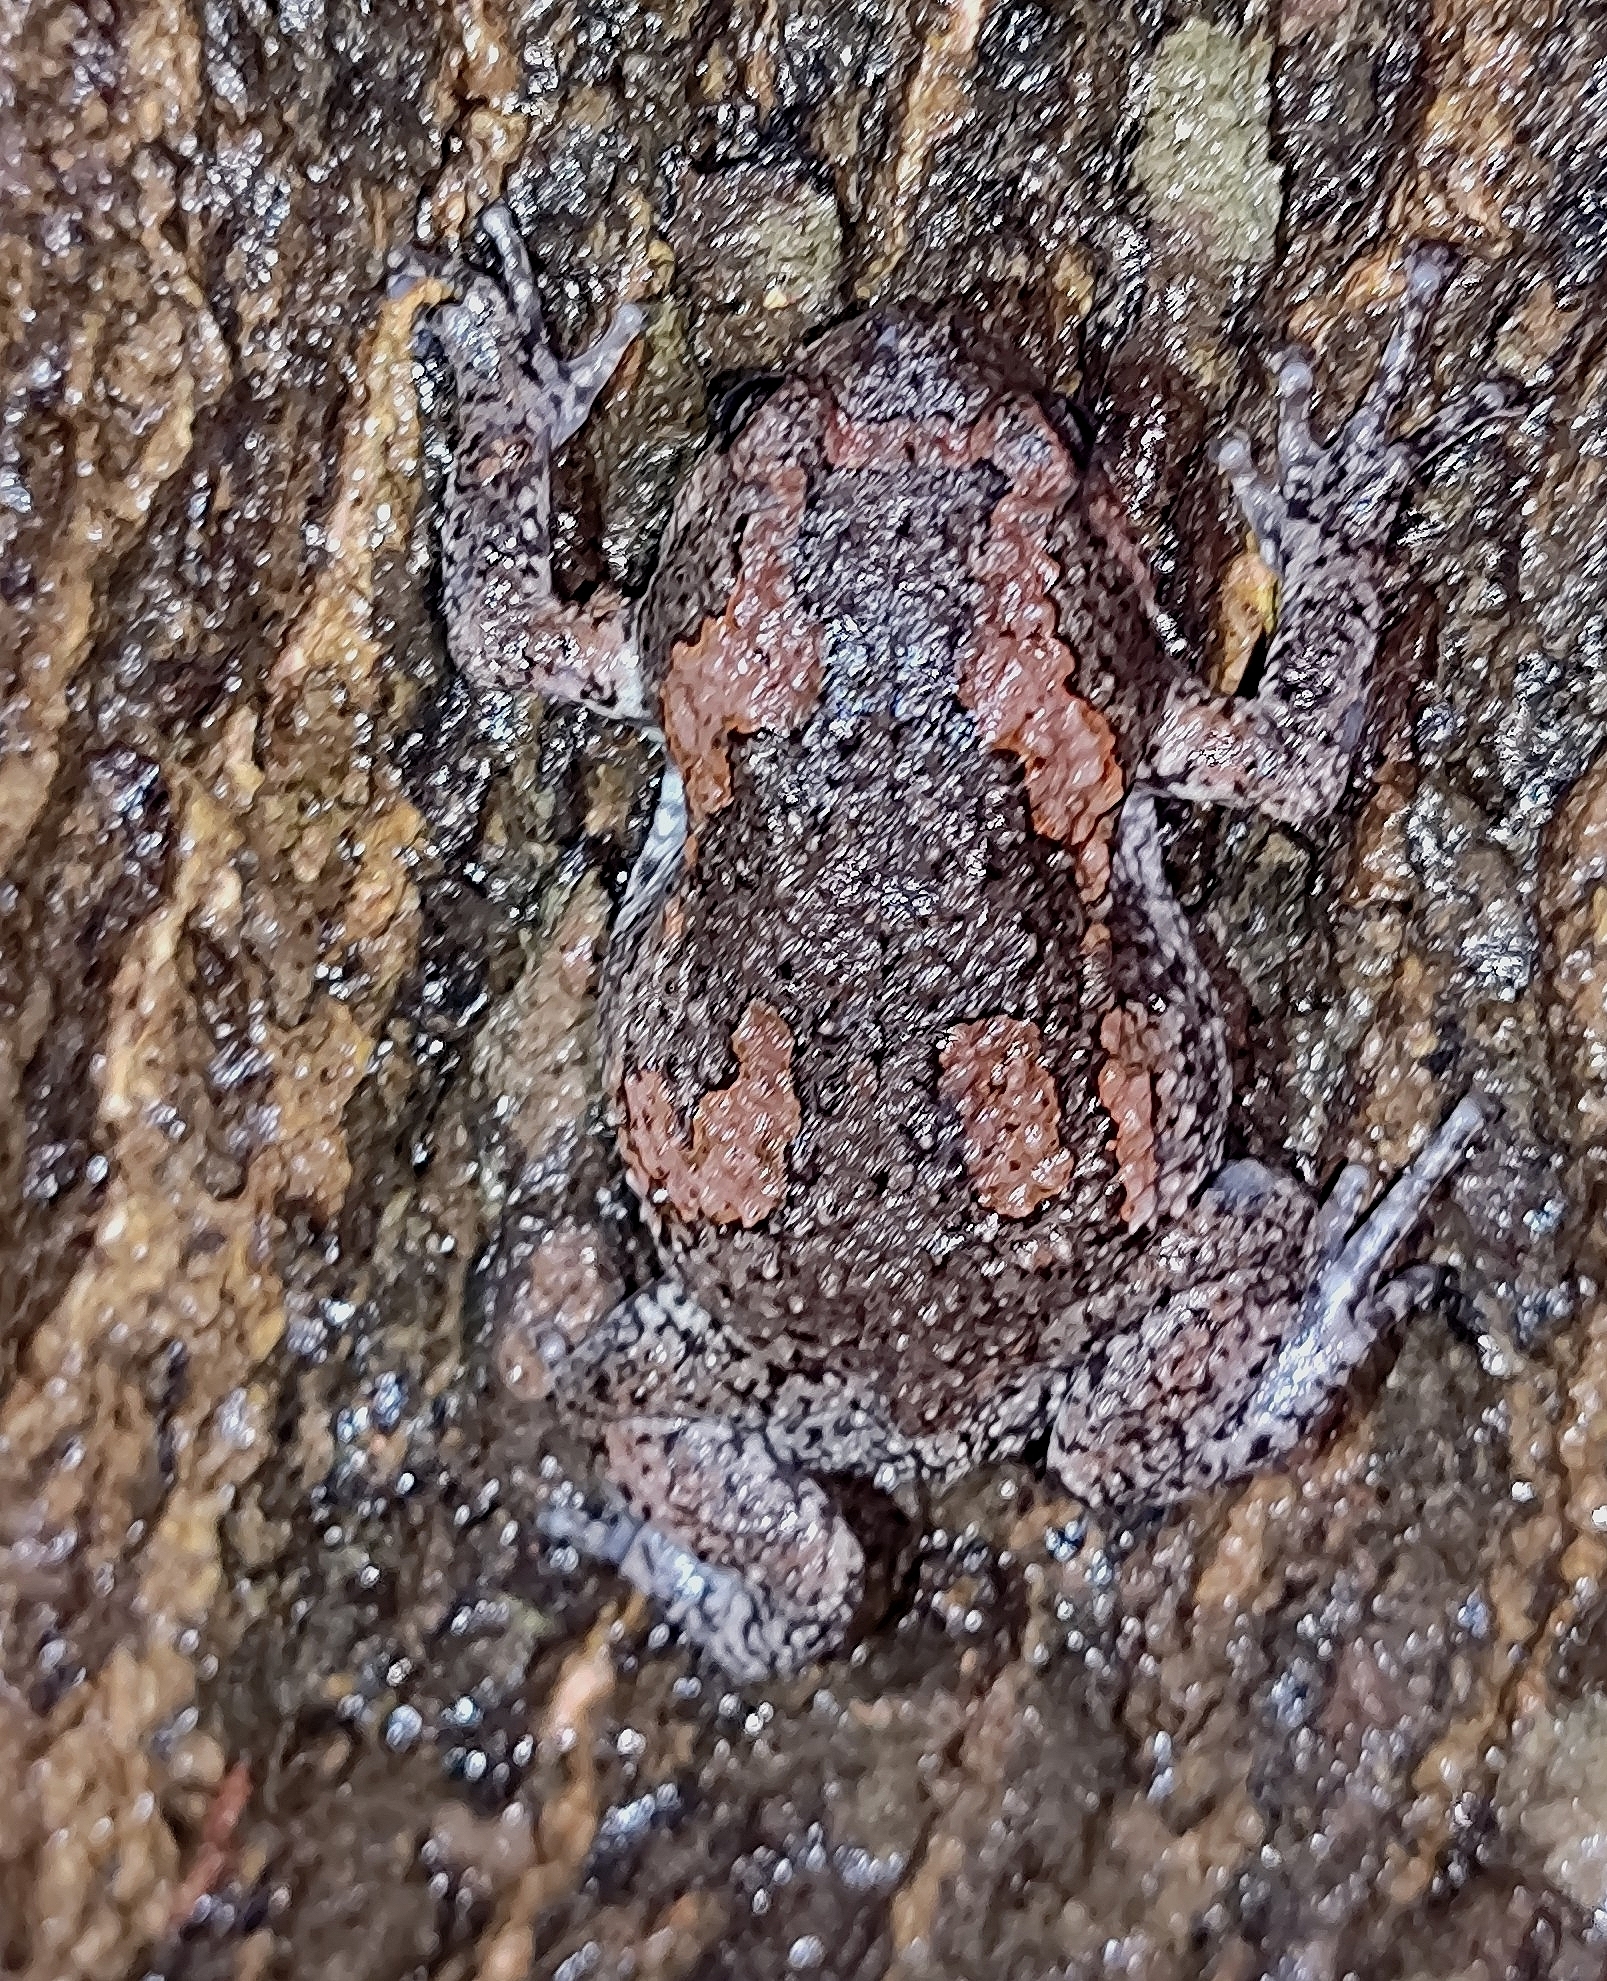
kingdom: Animalia
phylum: Chordata
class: Amphibia
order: Anura
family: Microhylidae
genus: Uperodon
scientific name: Uperodon taprobanicus
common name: Ceylon kaloula
